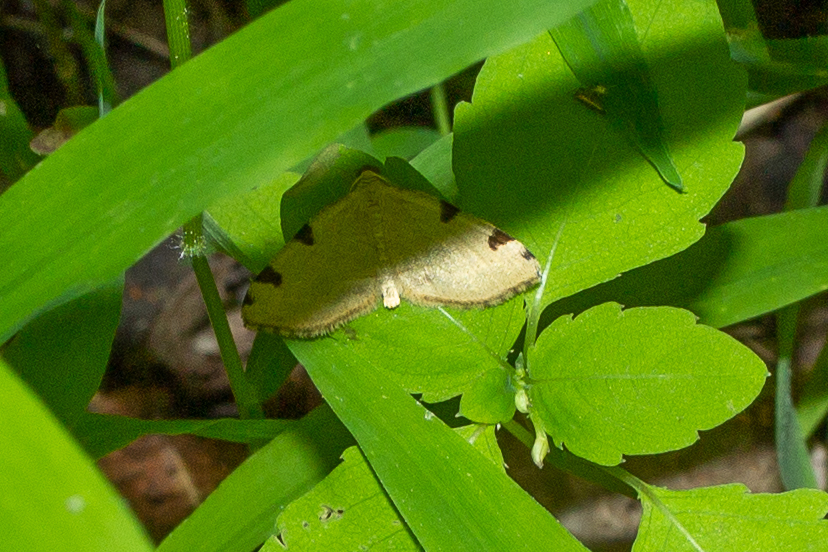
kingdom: Animalia
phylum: Arthropoda
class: Insecta
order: Lepidoptera
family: Geometridae
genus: Heterophleps
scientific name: Heterophleps triguttaria
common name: Three-spotted fillip
